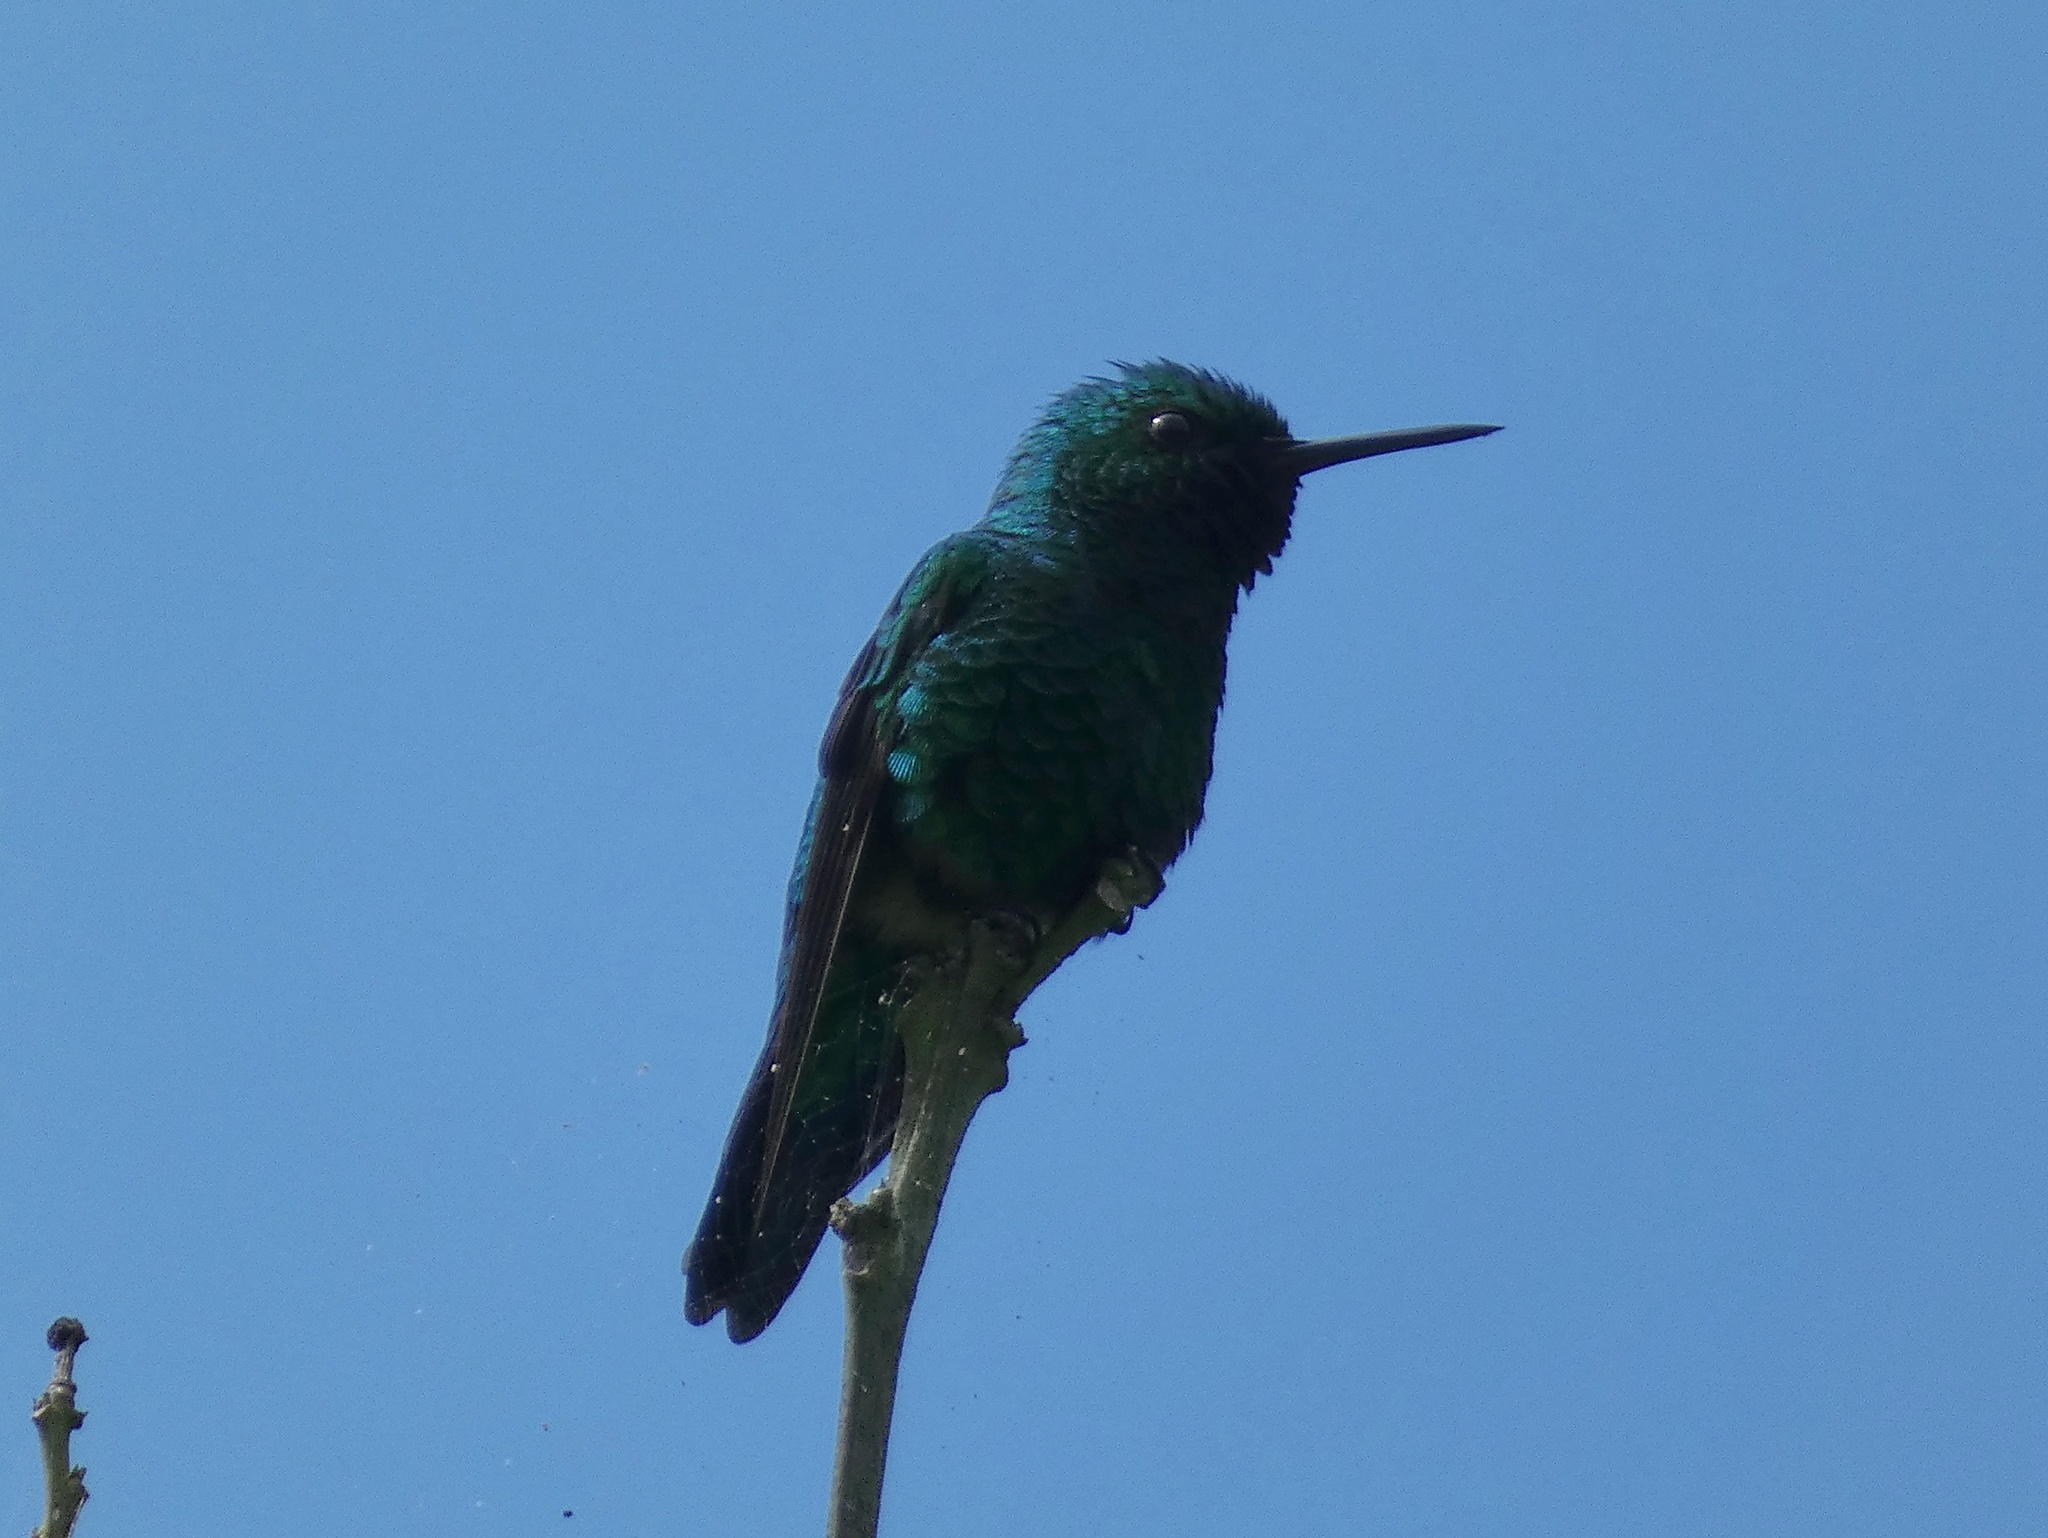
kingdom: Animalia
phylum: Chordata
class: Aves
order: Apodiformes
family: Trochilidae
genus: Chlorostilbon
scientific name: Chlorostilbon assimilis
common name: Garden emerald
